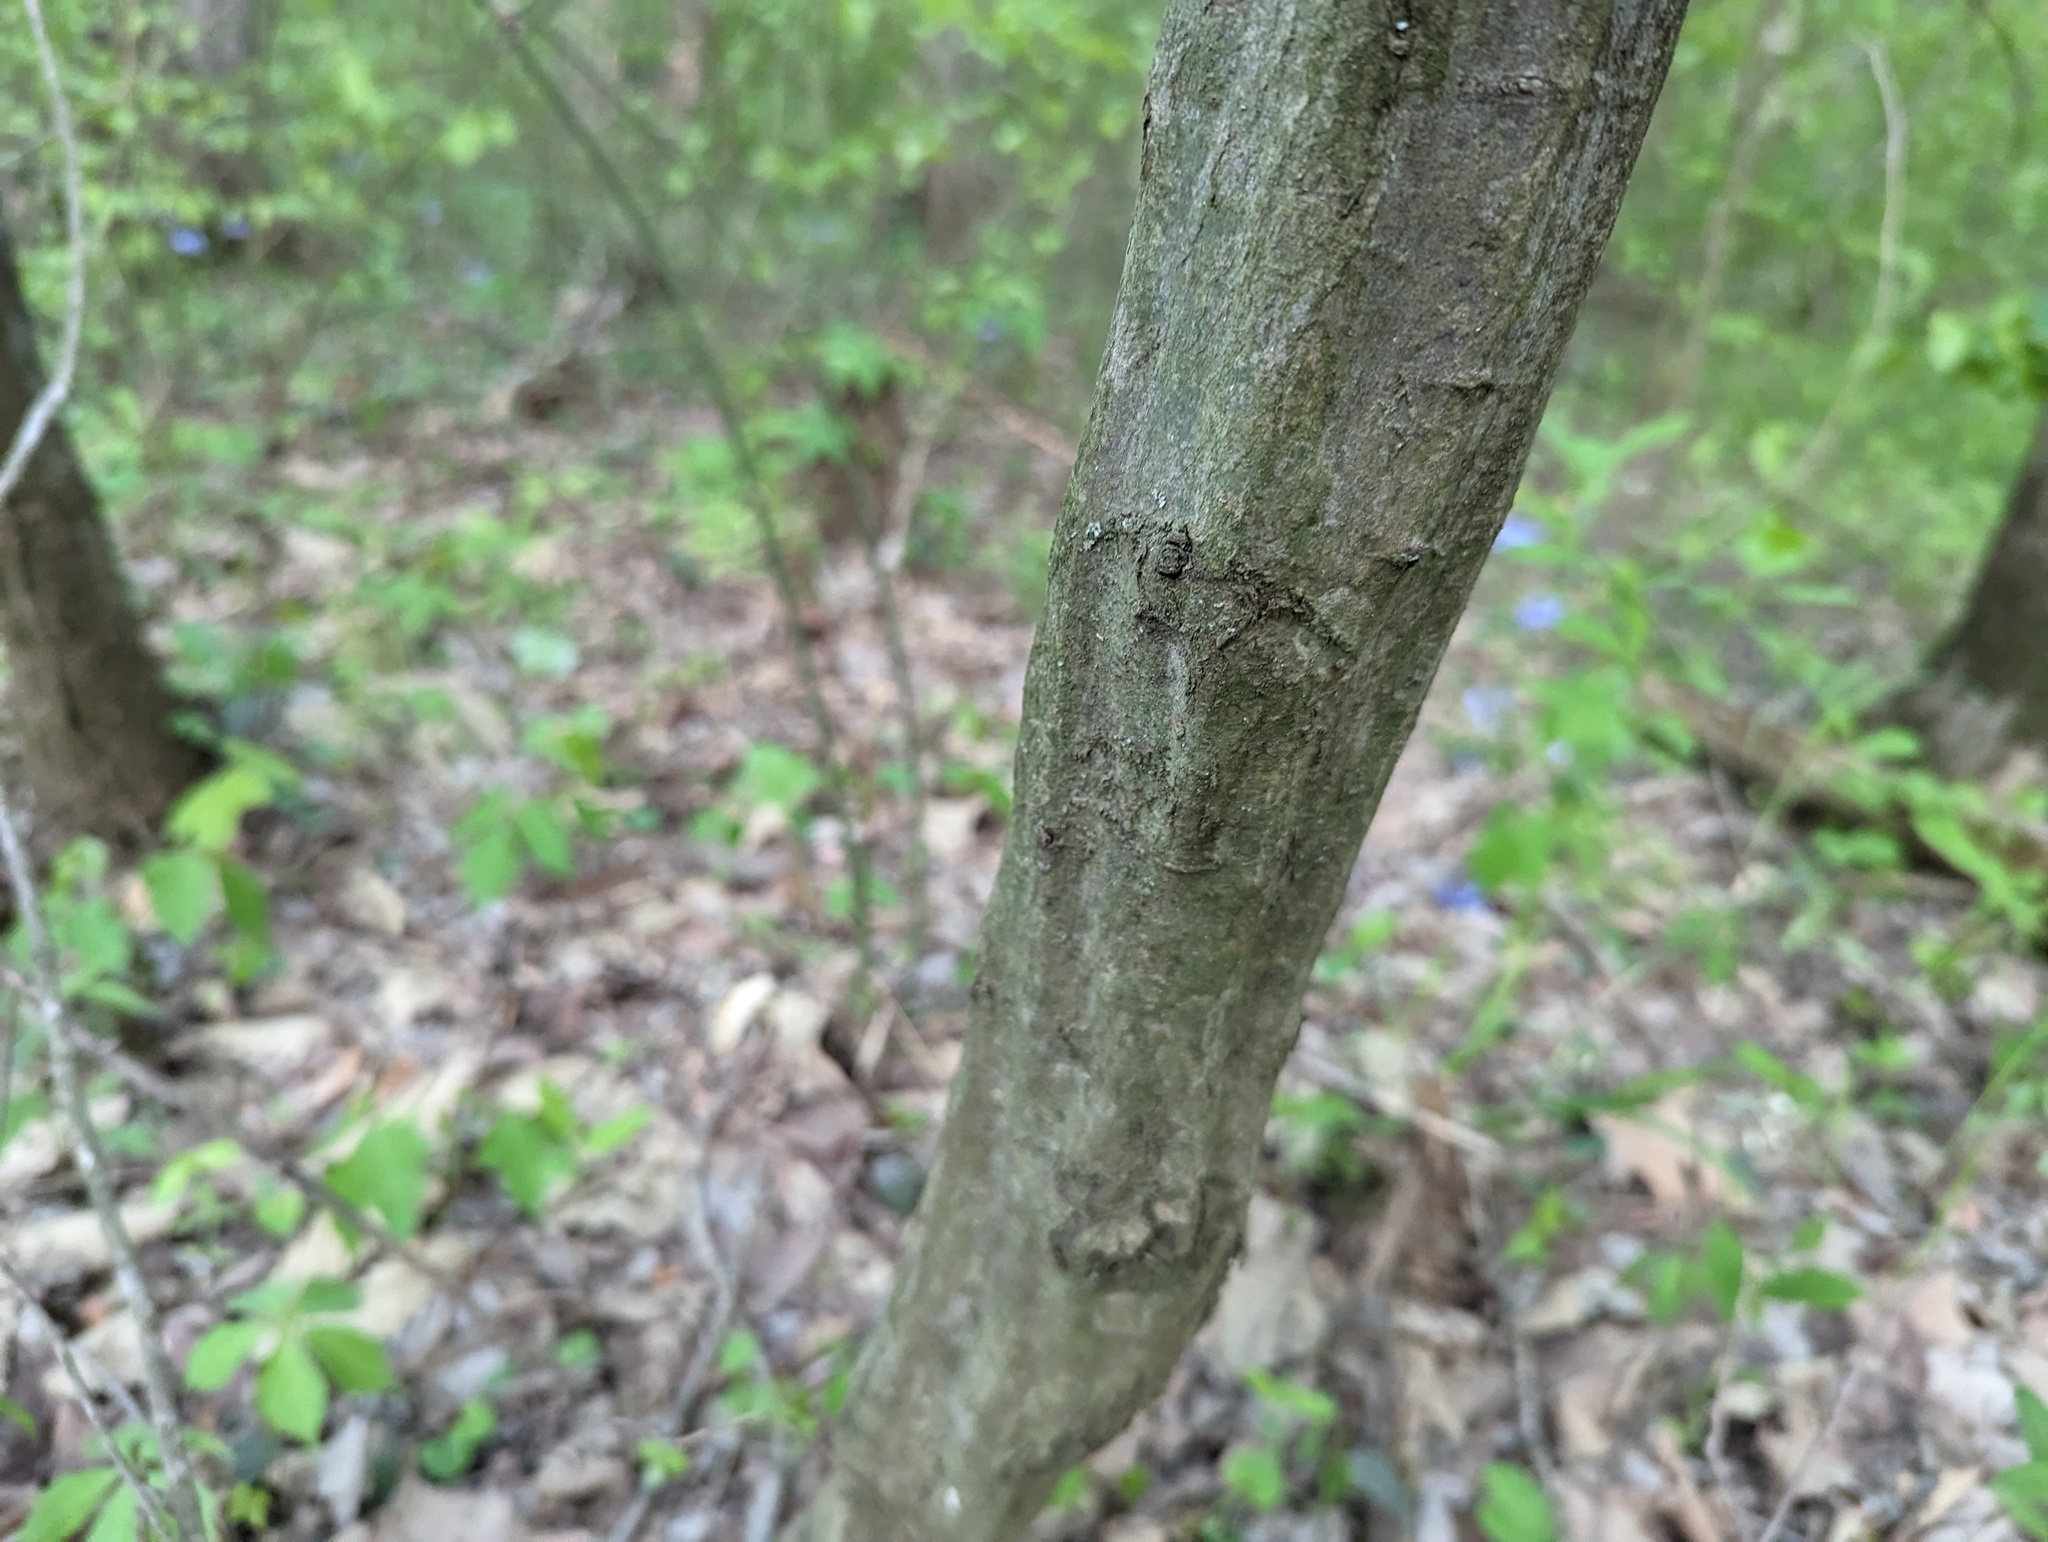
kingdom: Plantae
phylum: Tracheophyta
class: Magnoliopsida
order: Fagales
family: Betulaceae
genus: Carpinus
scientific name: Carpinus caroliniana
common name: American hornbeam
